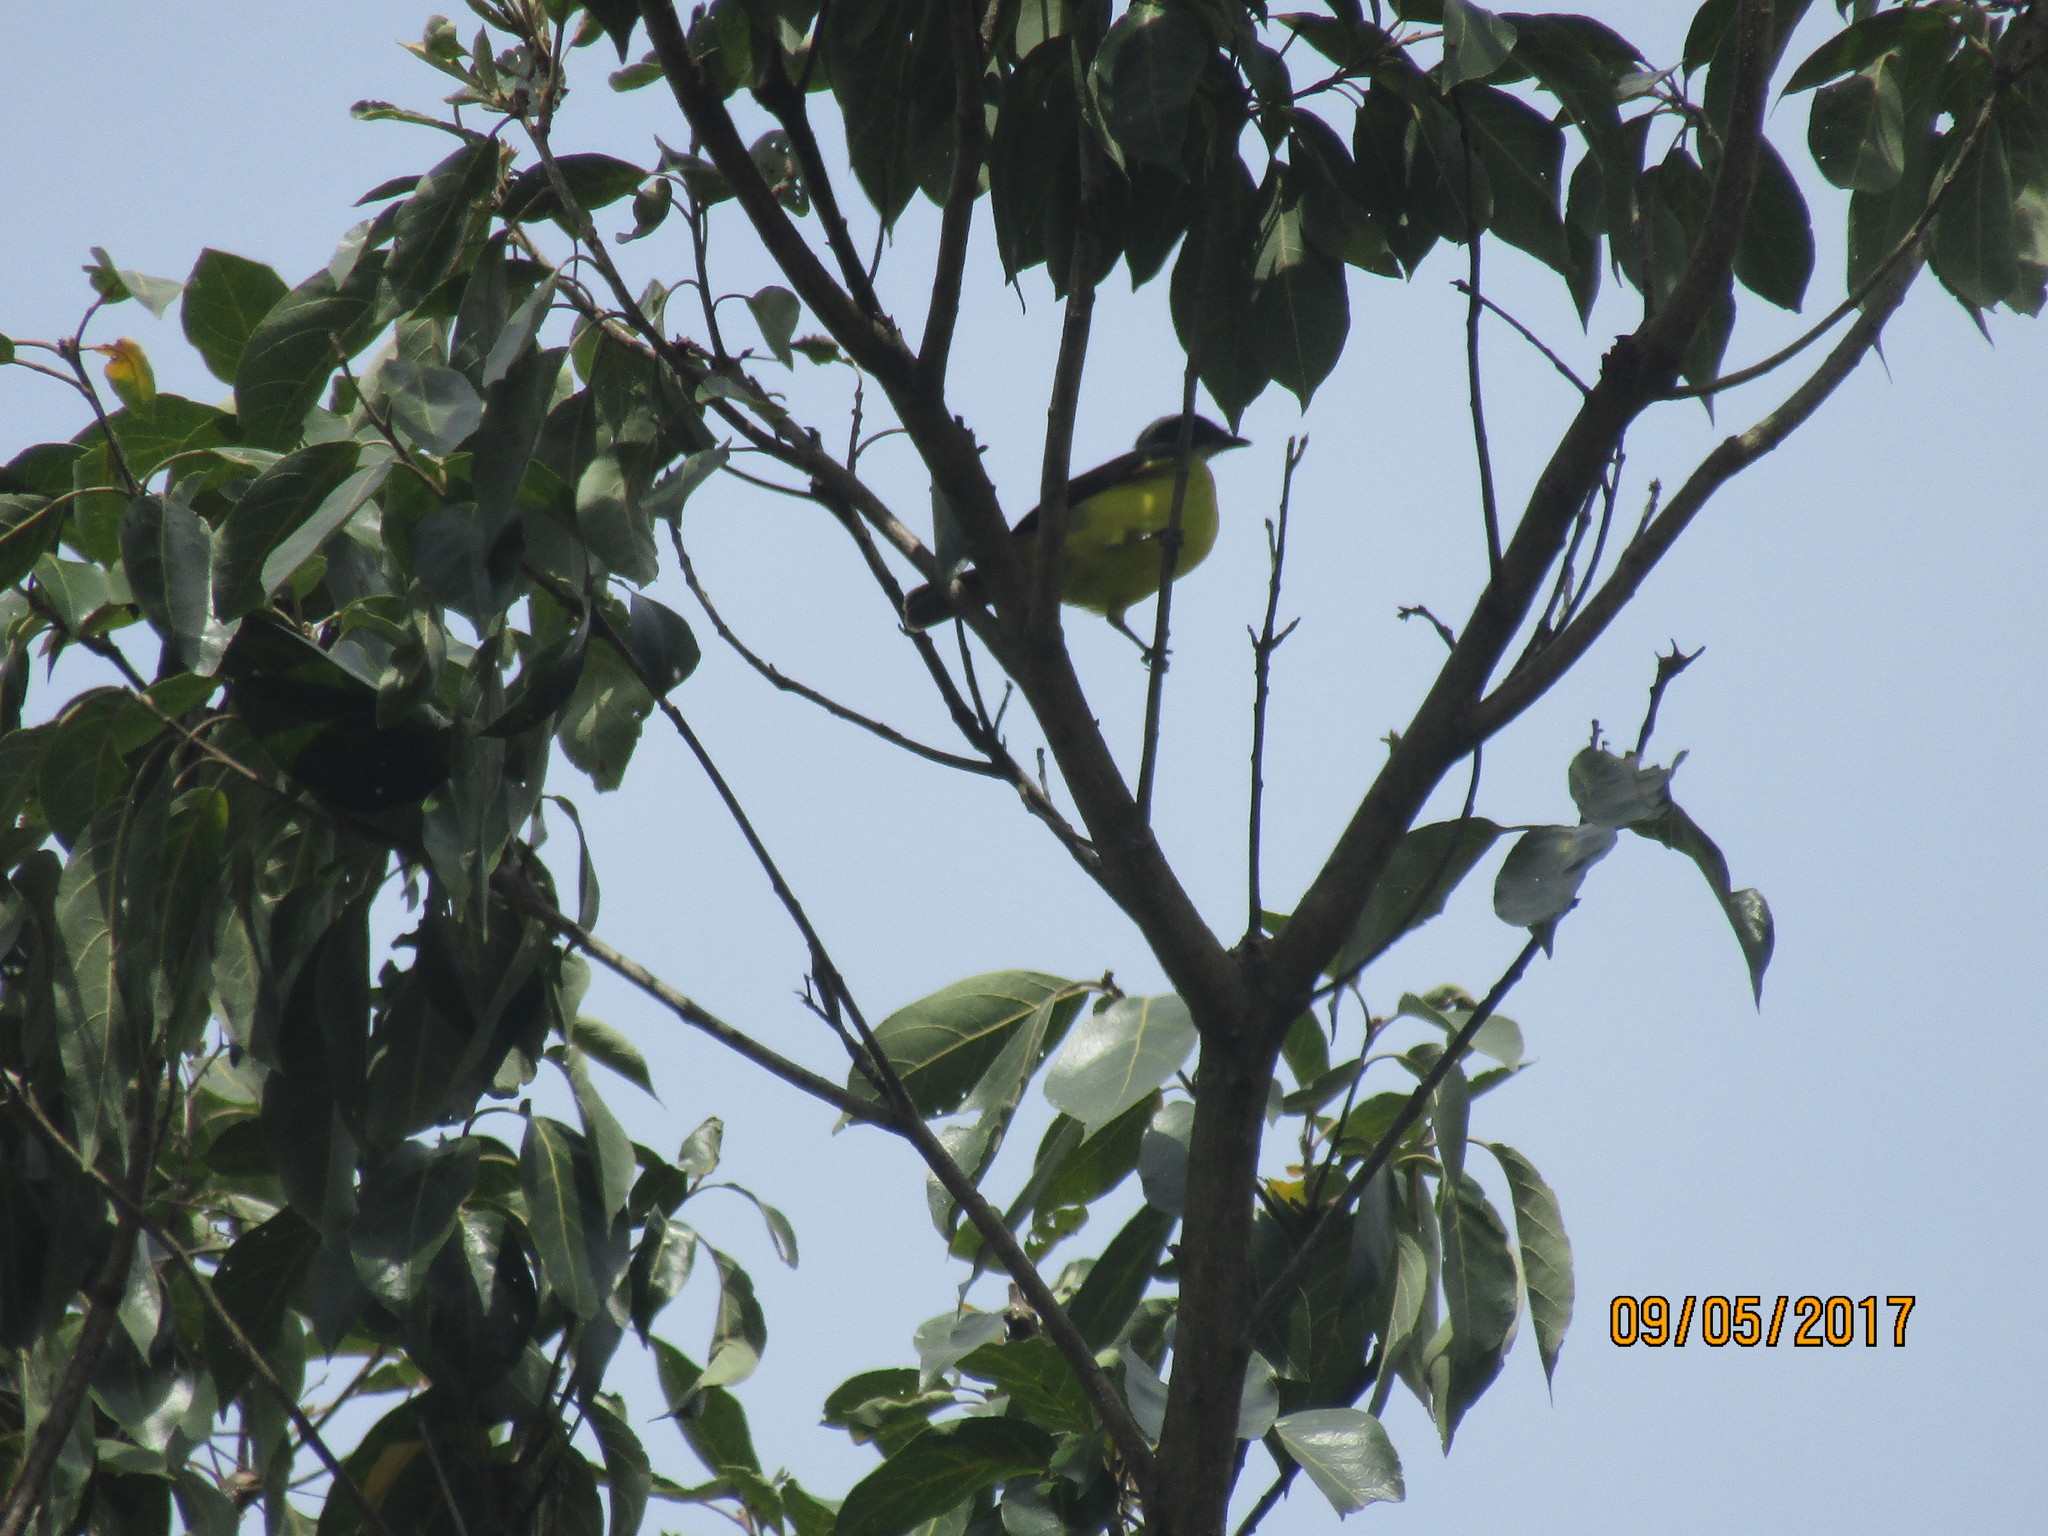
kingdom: Animalia
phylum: Chordata
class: Aves
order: Passeriformes
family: Tyrannidae
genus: Myiozetetes
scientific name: Myiozetetes similis
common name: Social flycatcher
